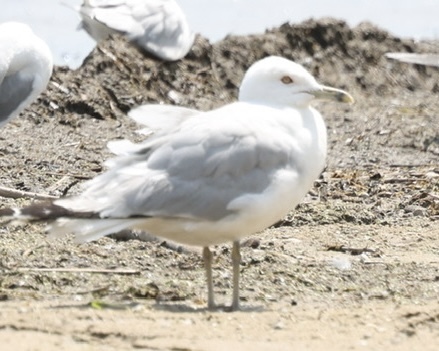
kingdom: Animalia
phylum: Chordata
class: Aves
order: Charadriiformes
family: Laridae
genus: Larus
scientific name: Larus delawarensis
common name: Ring-billed gull
